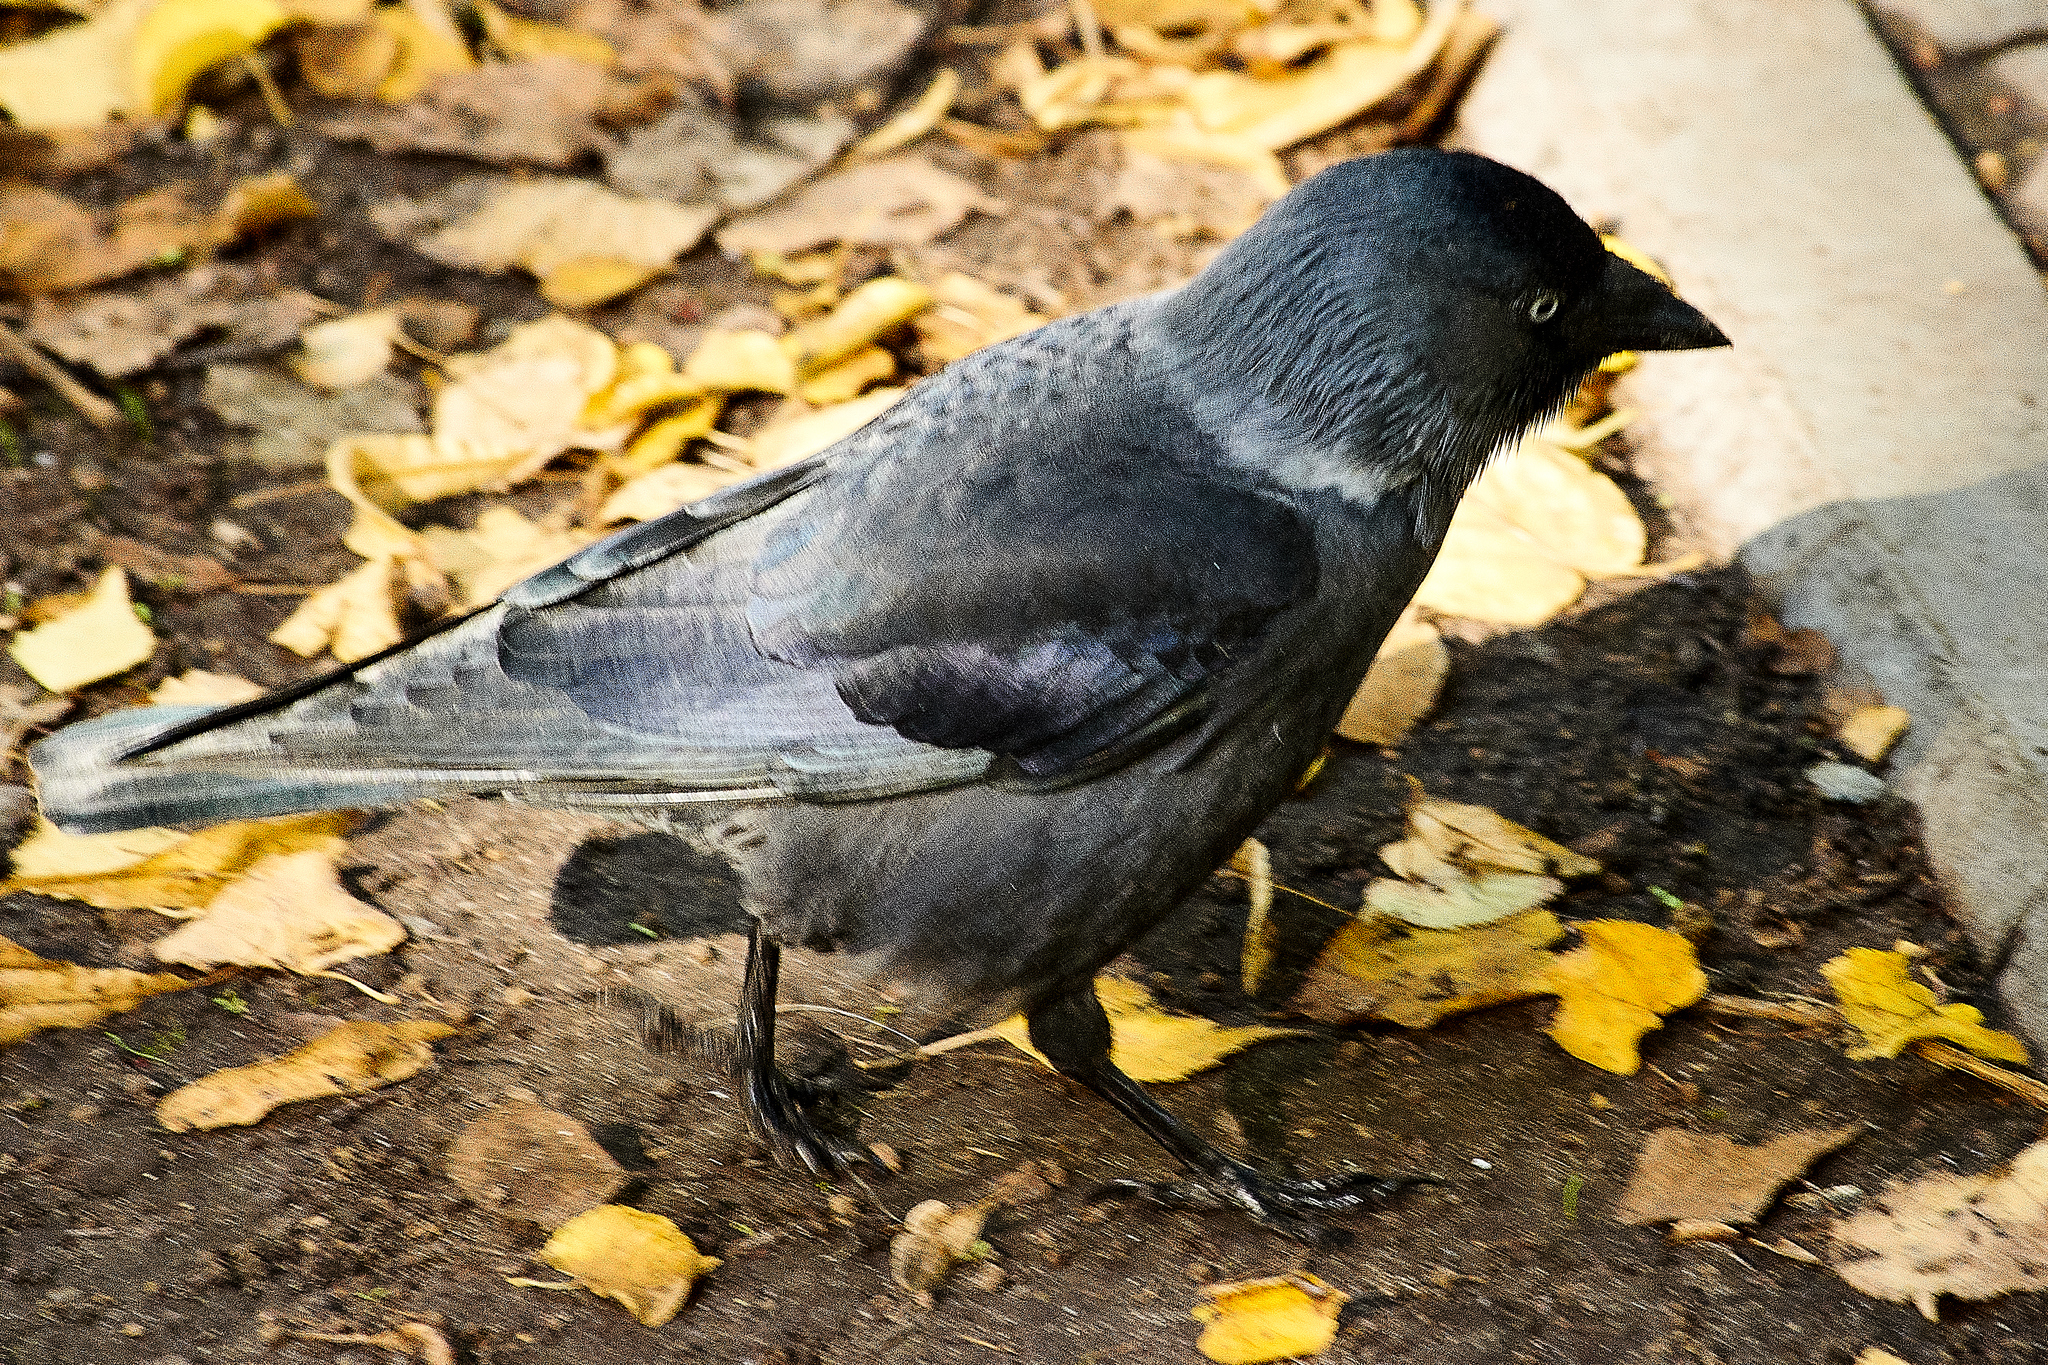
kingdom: Animalia
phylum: Chordata
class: Aves
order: Passeriformes
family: Corvidae
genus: Coloeus
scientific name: Coloeus monedula
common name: Western jackdaw
